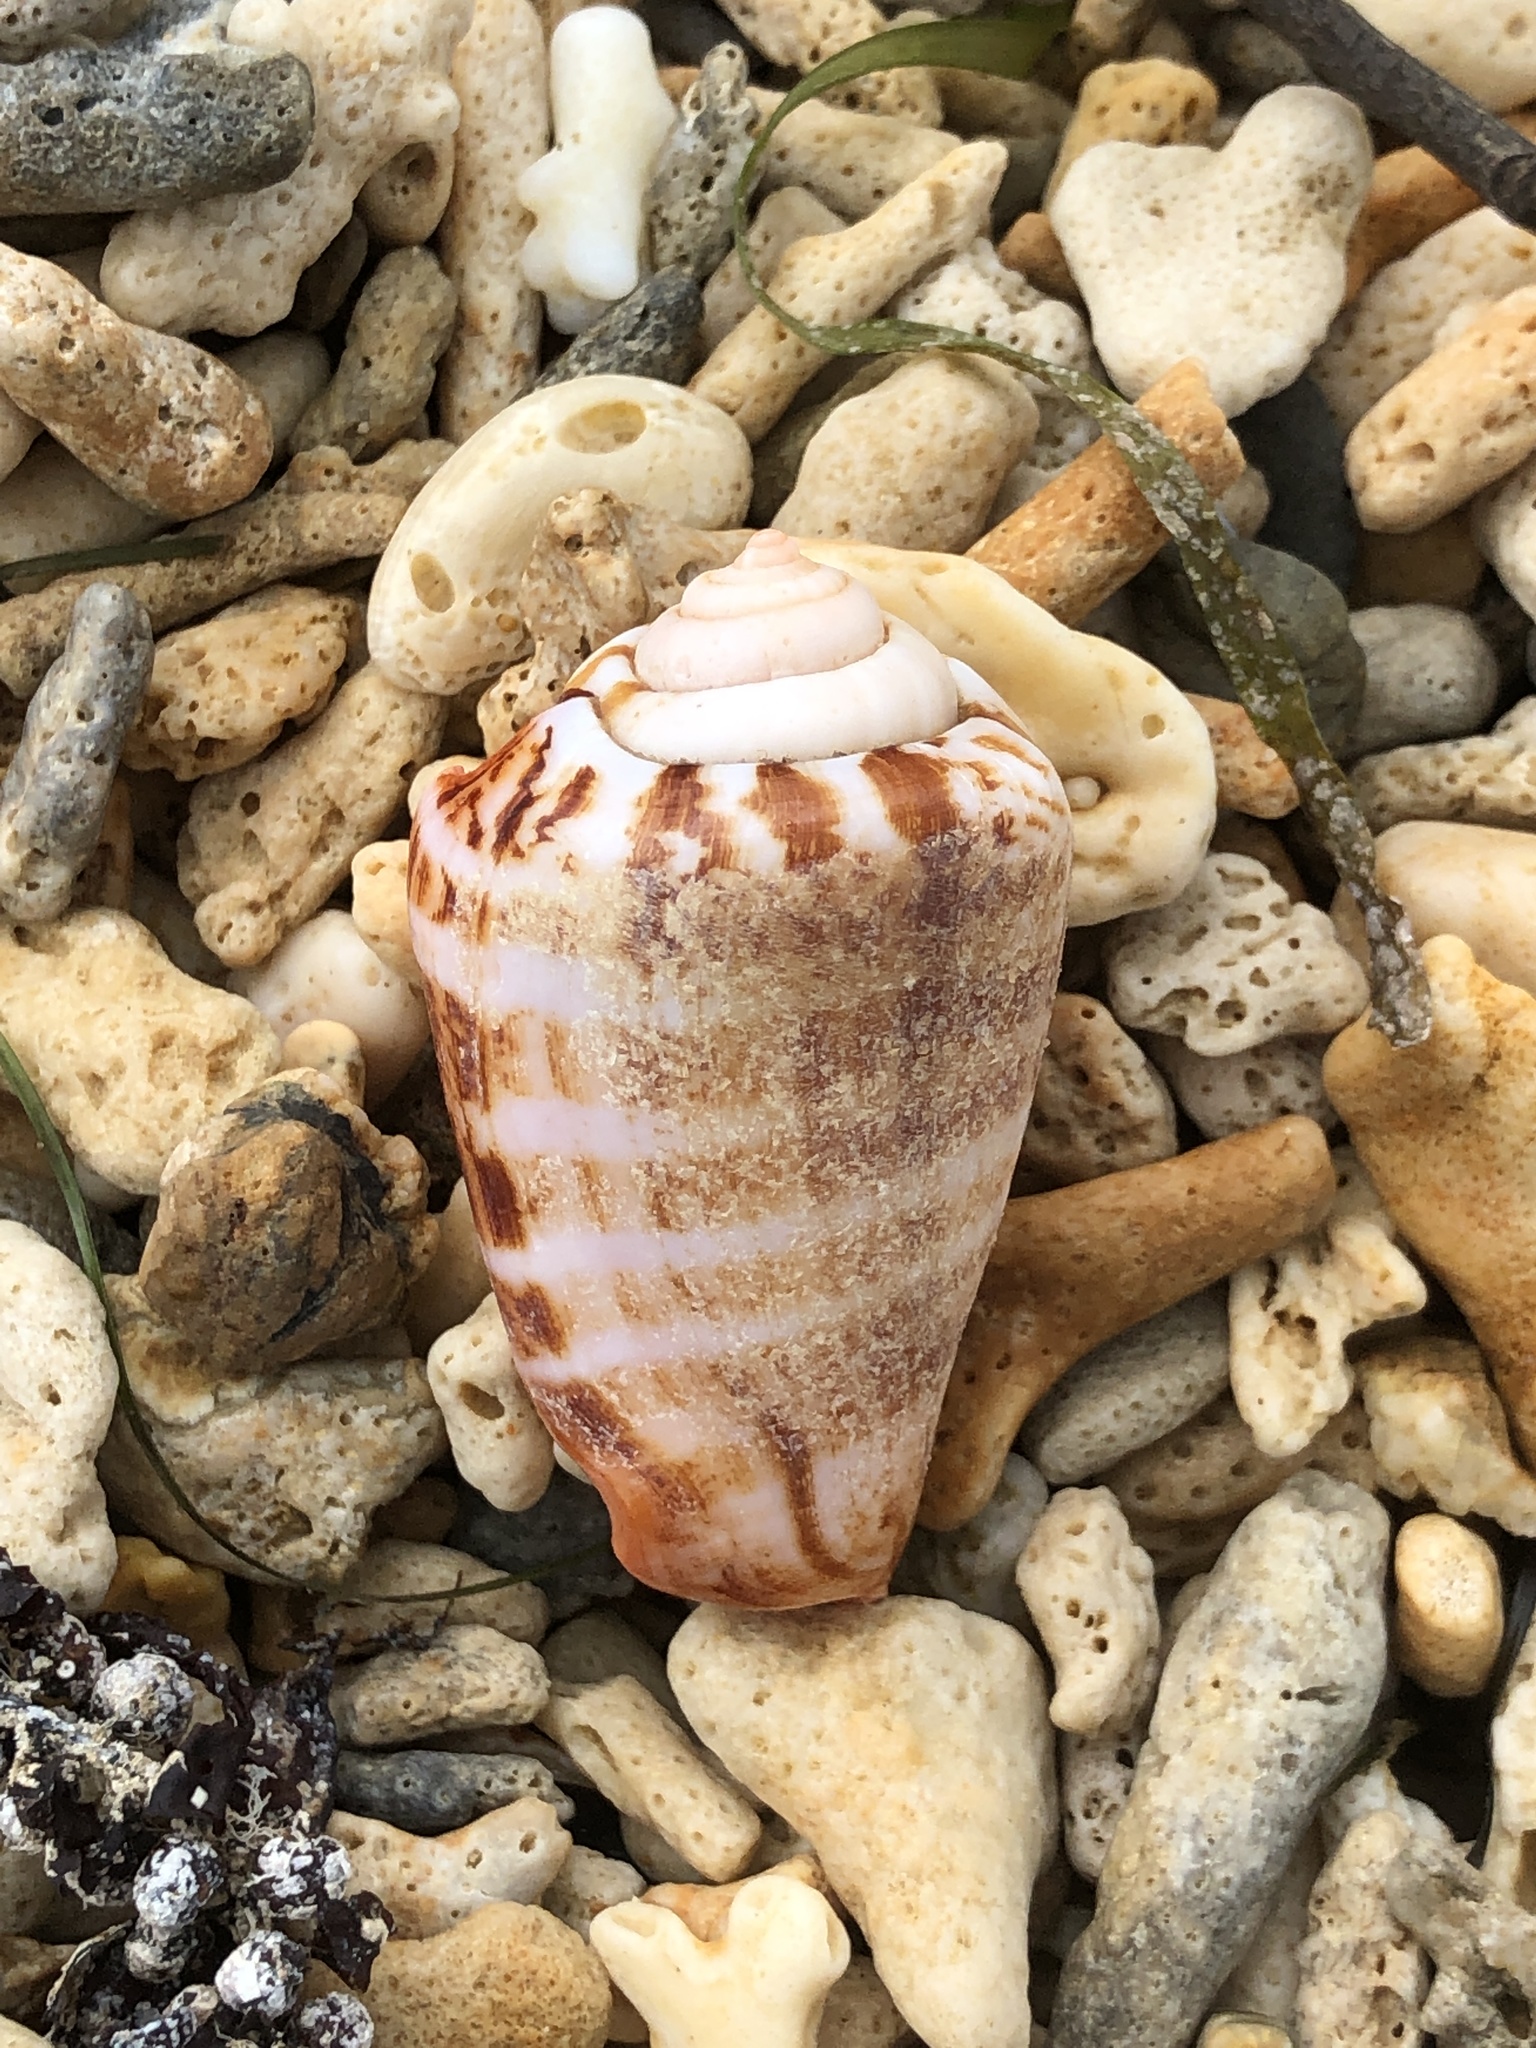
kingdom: Animalia
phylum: Mollusca
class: Gastropoda
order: Littorinimorpha
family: Strombidae
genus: Conomurex
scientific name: Conomurex luhuanus
